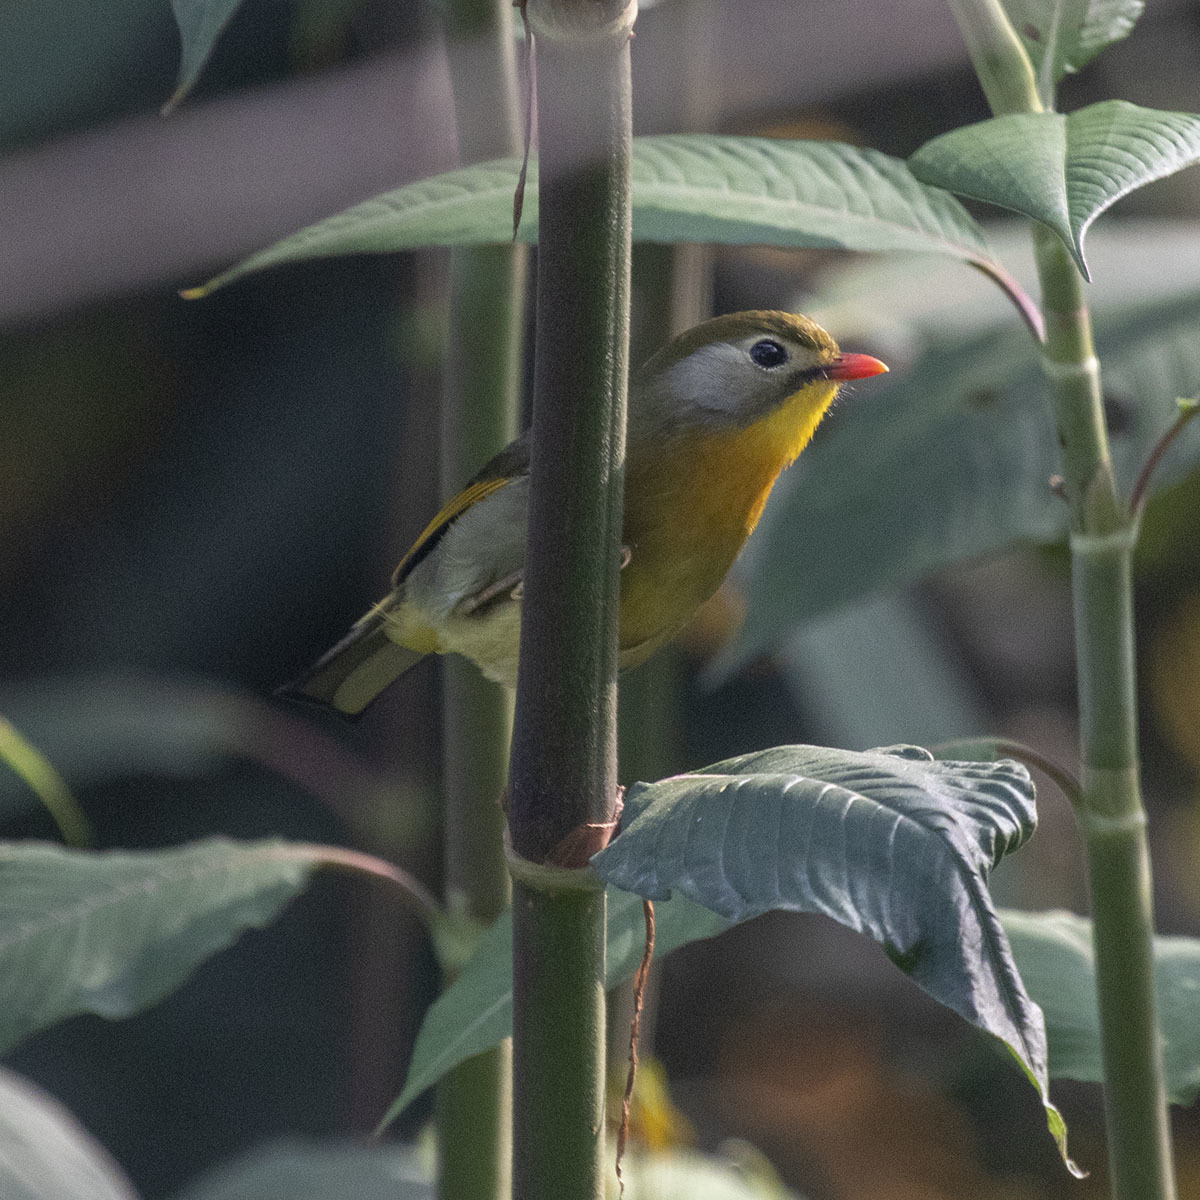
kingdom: Animalia
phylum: Chordata
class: Aves
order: Passeriformes
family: Leiothrichidae
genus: Leiothrix
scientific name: Leiothrix lutea
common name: Red-billed leiothrix
